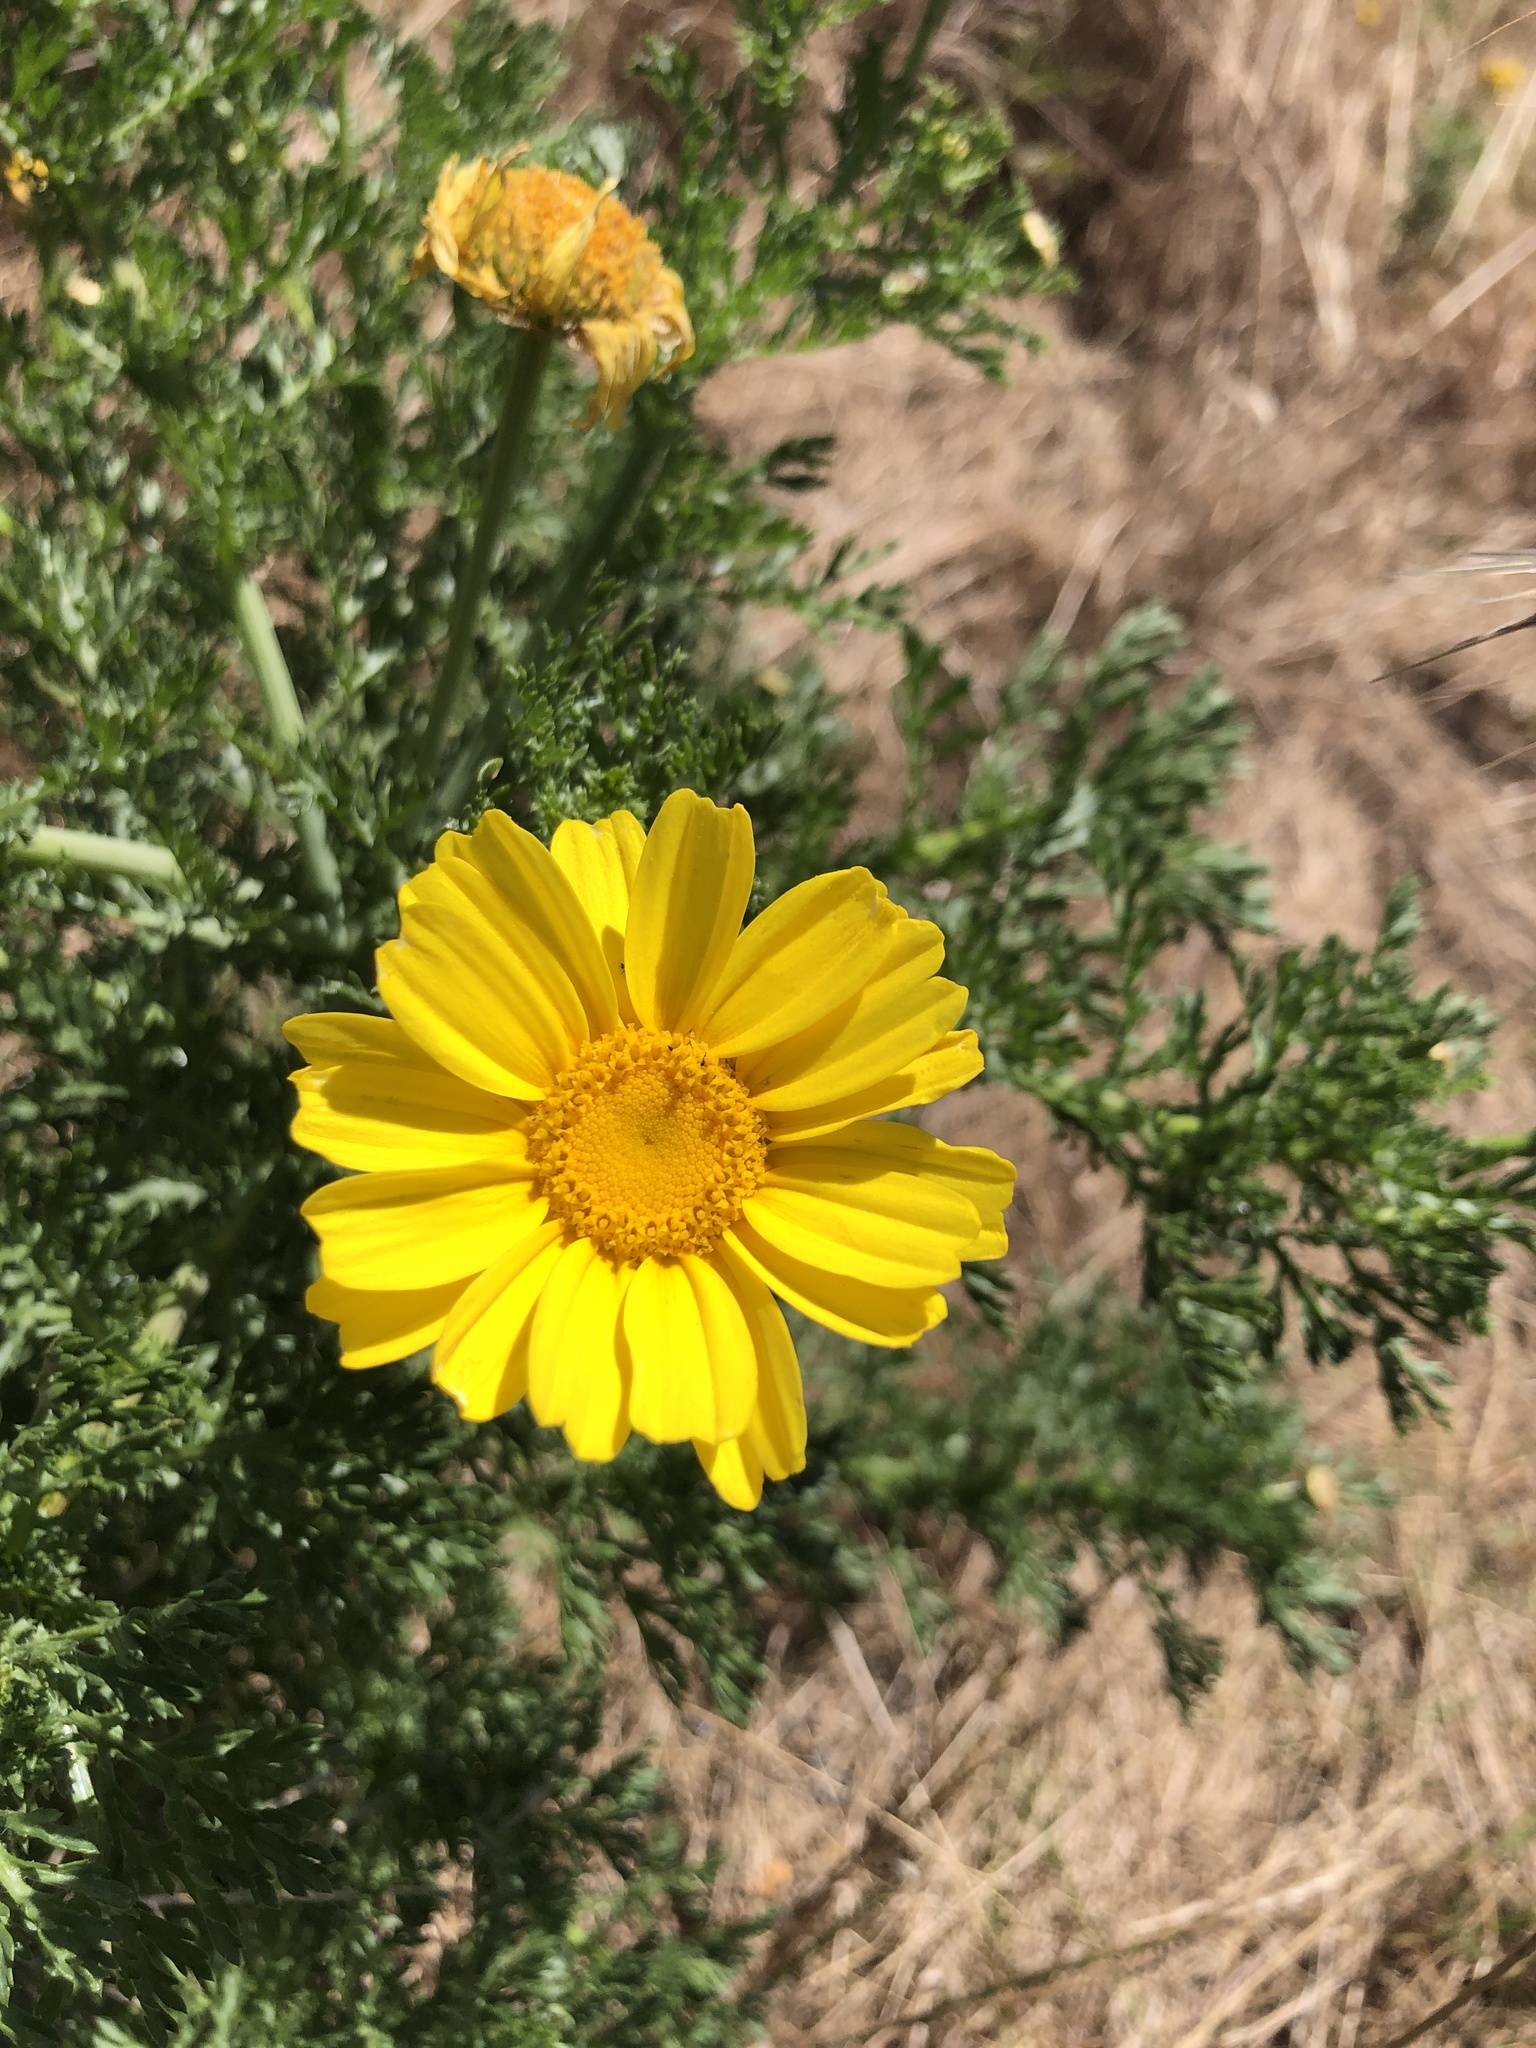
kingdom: Plantae
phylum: Tracheophyta
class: Magnoliopsida
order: Asterales
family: Asteraceae
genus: Glebionis
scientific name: Glebionis coronaria
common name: Crowndaisy
